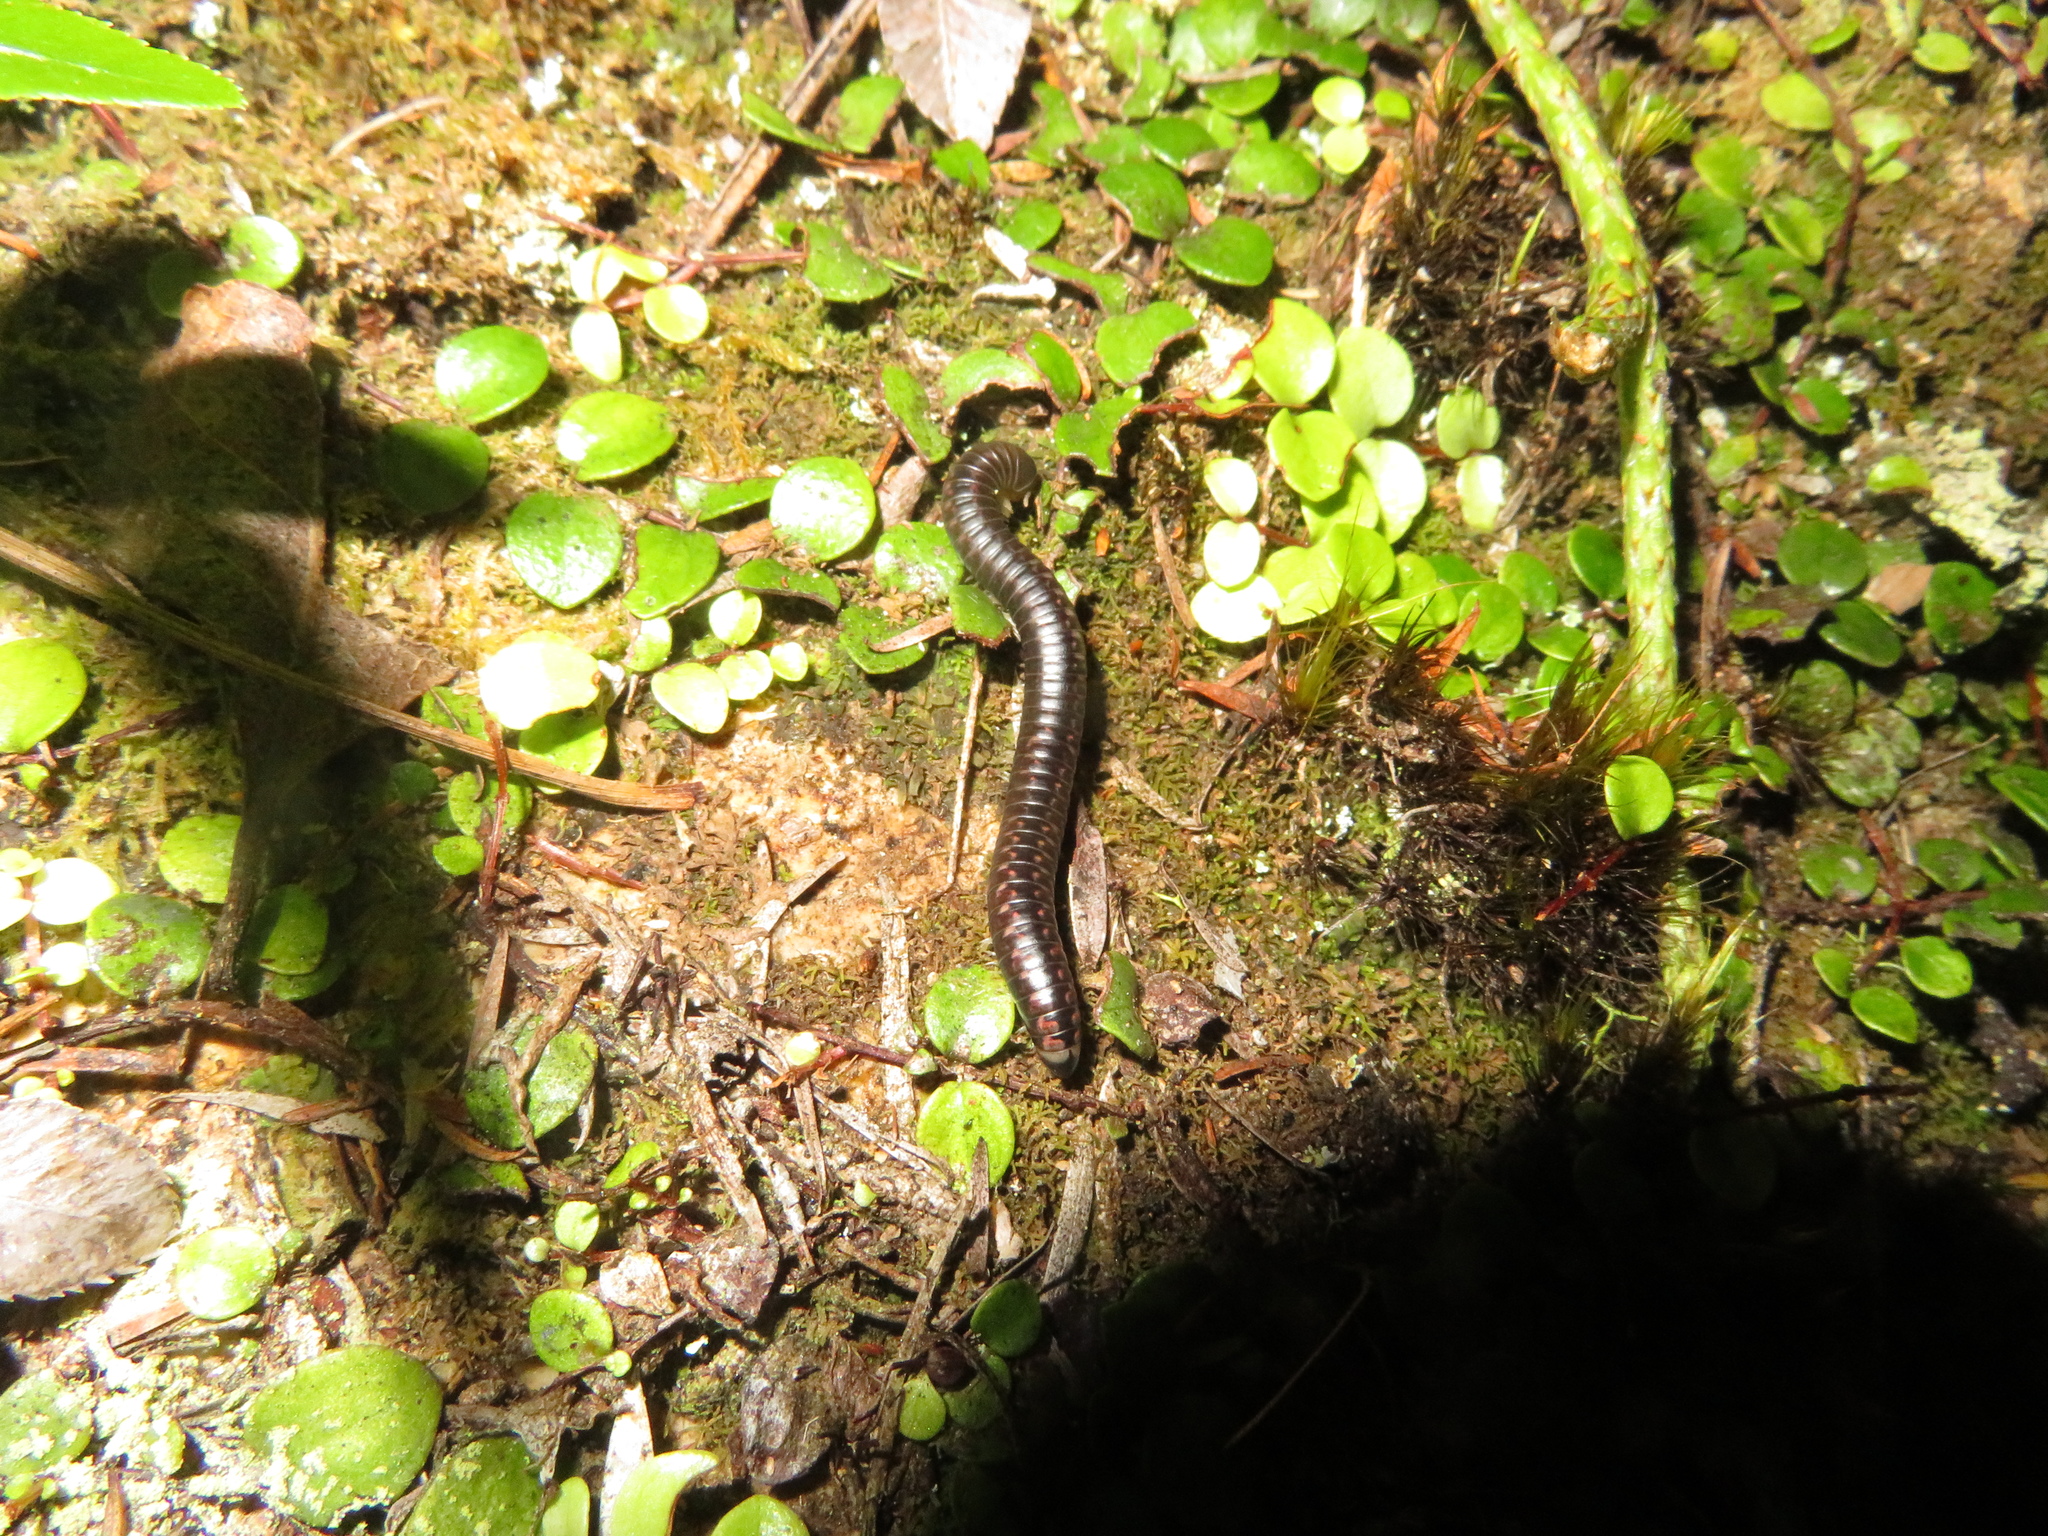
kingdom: Animalia
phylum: Arthropoda
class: Diplopoda
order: Spirobolida
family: Spirobolellidae
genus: Spirobolellus
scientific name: Spirobolellus antipodarum
